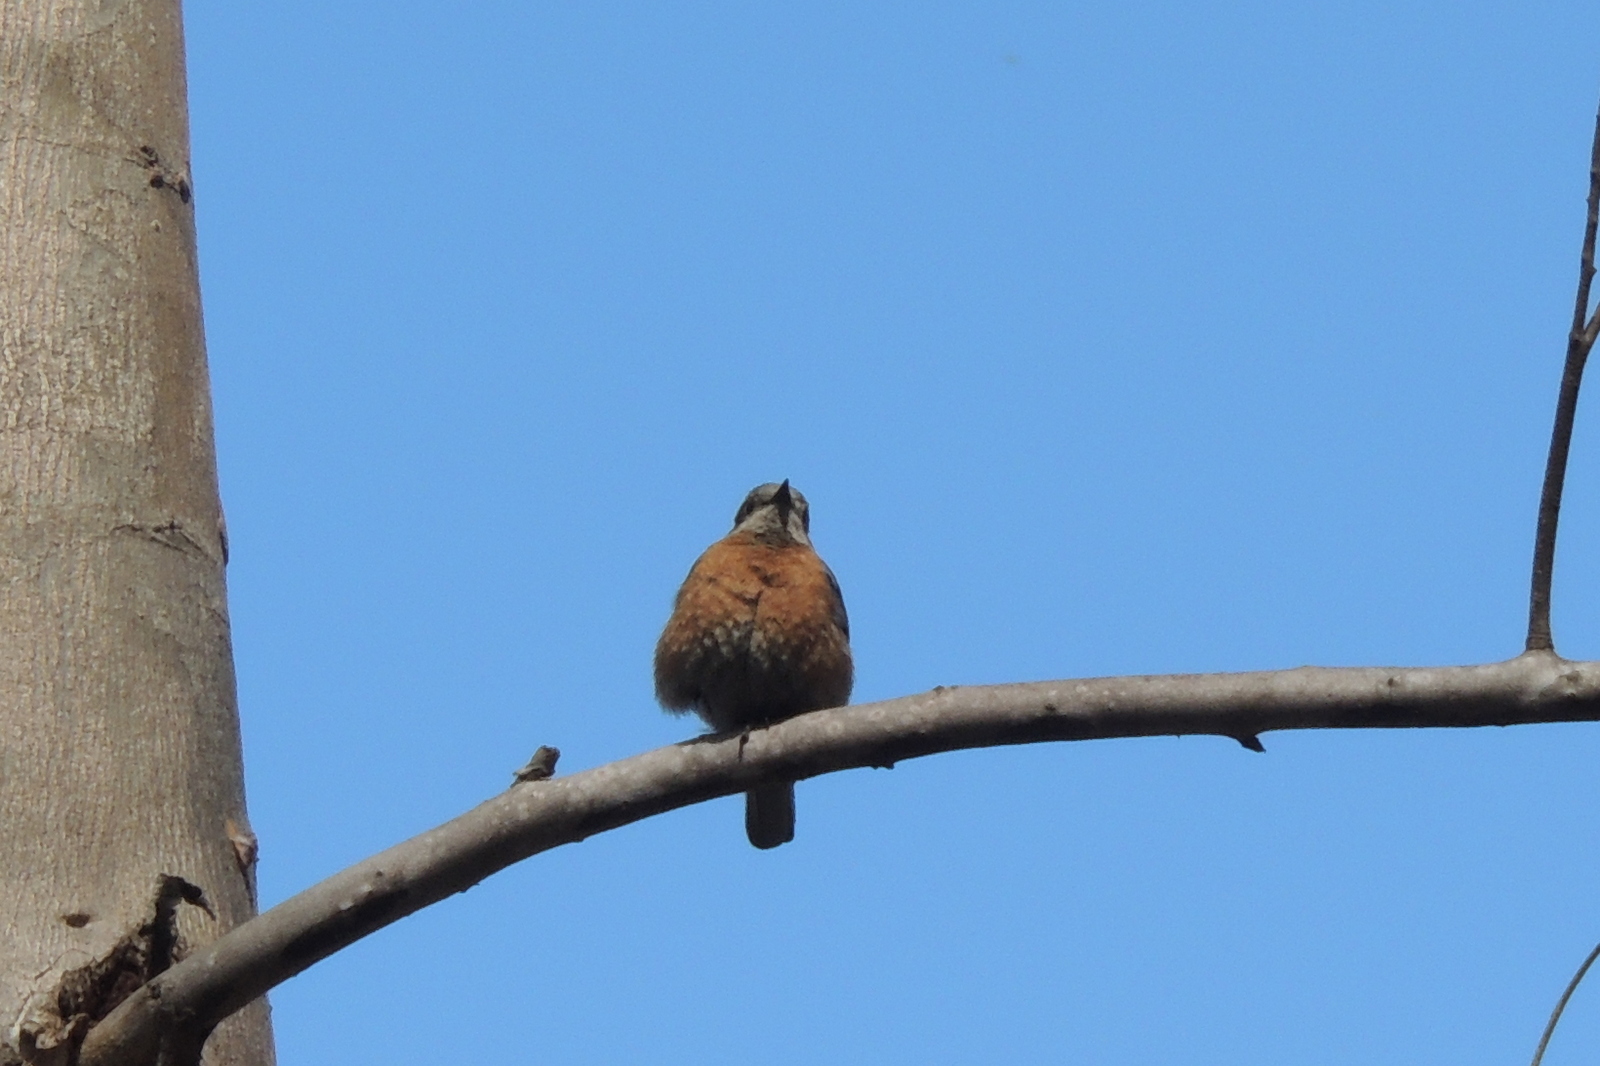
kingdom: Animalia
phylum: Chordata
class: Aves
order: Passeriformes
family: Turdidae
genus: Sialia
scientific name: Sialia mexicana
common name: Western bluebird
